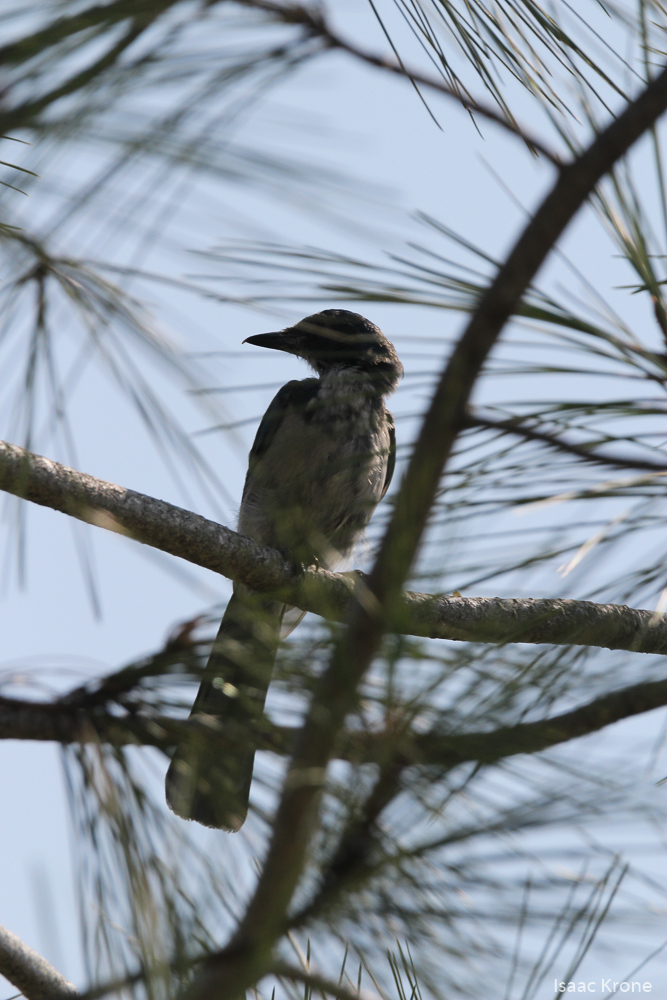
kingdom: Animalia
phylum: Chordata
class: Aves
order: Passeriformes
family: Corvidae
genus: Aphelocoma
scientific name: Aphelocoma californica
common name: California scrub-jay
